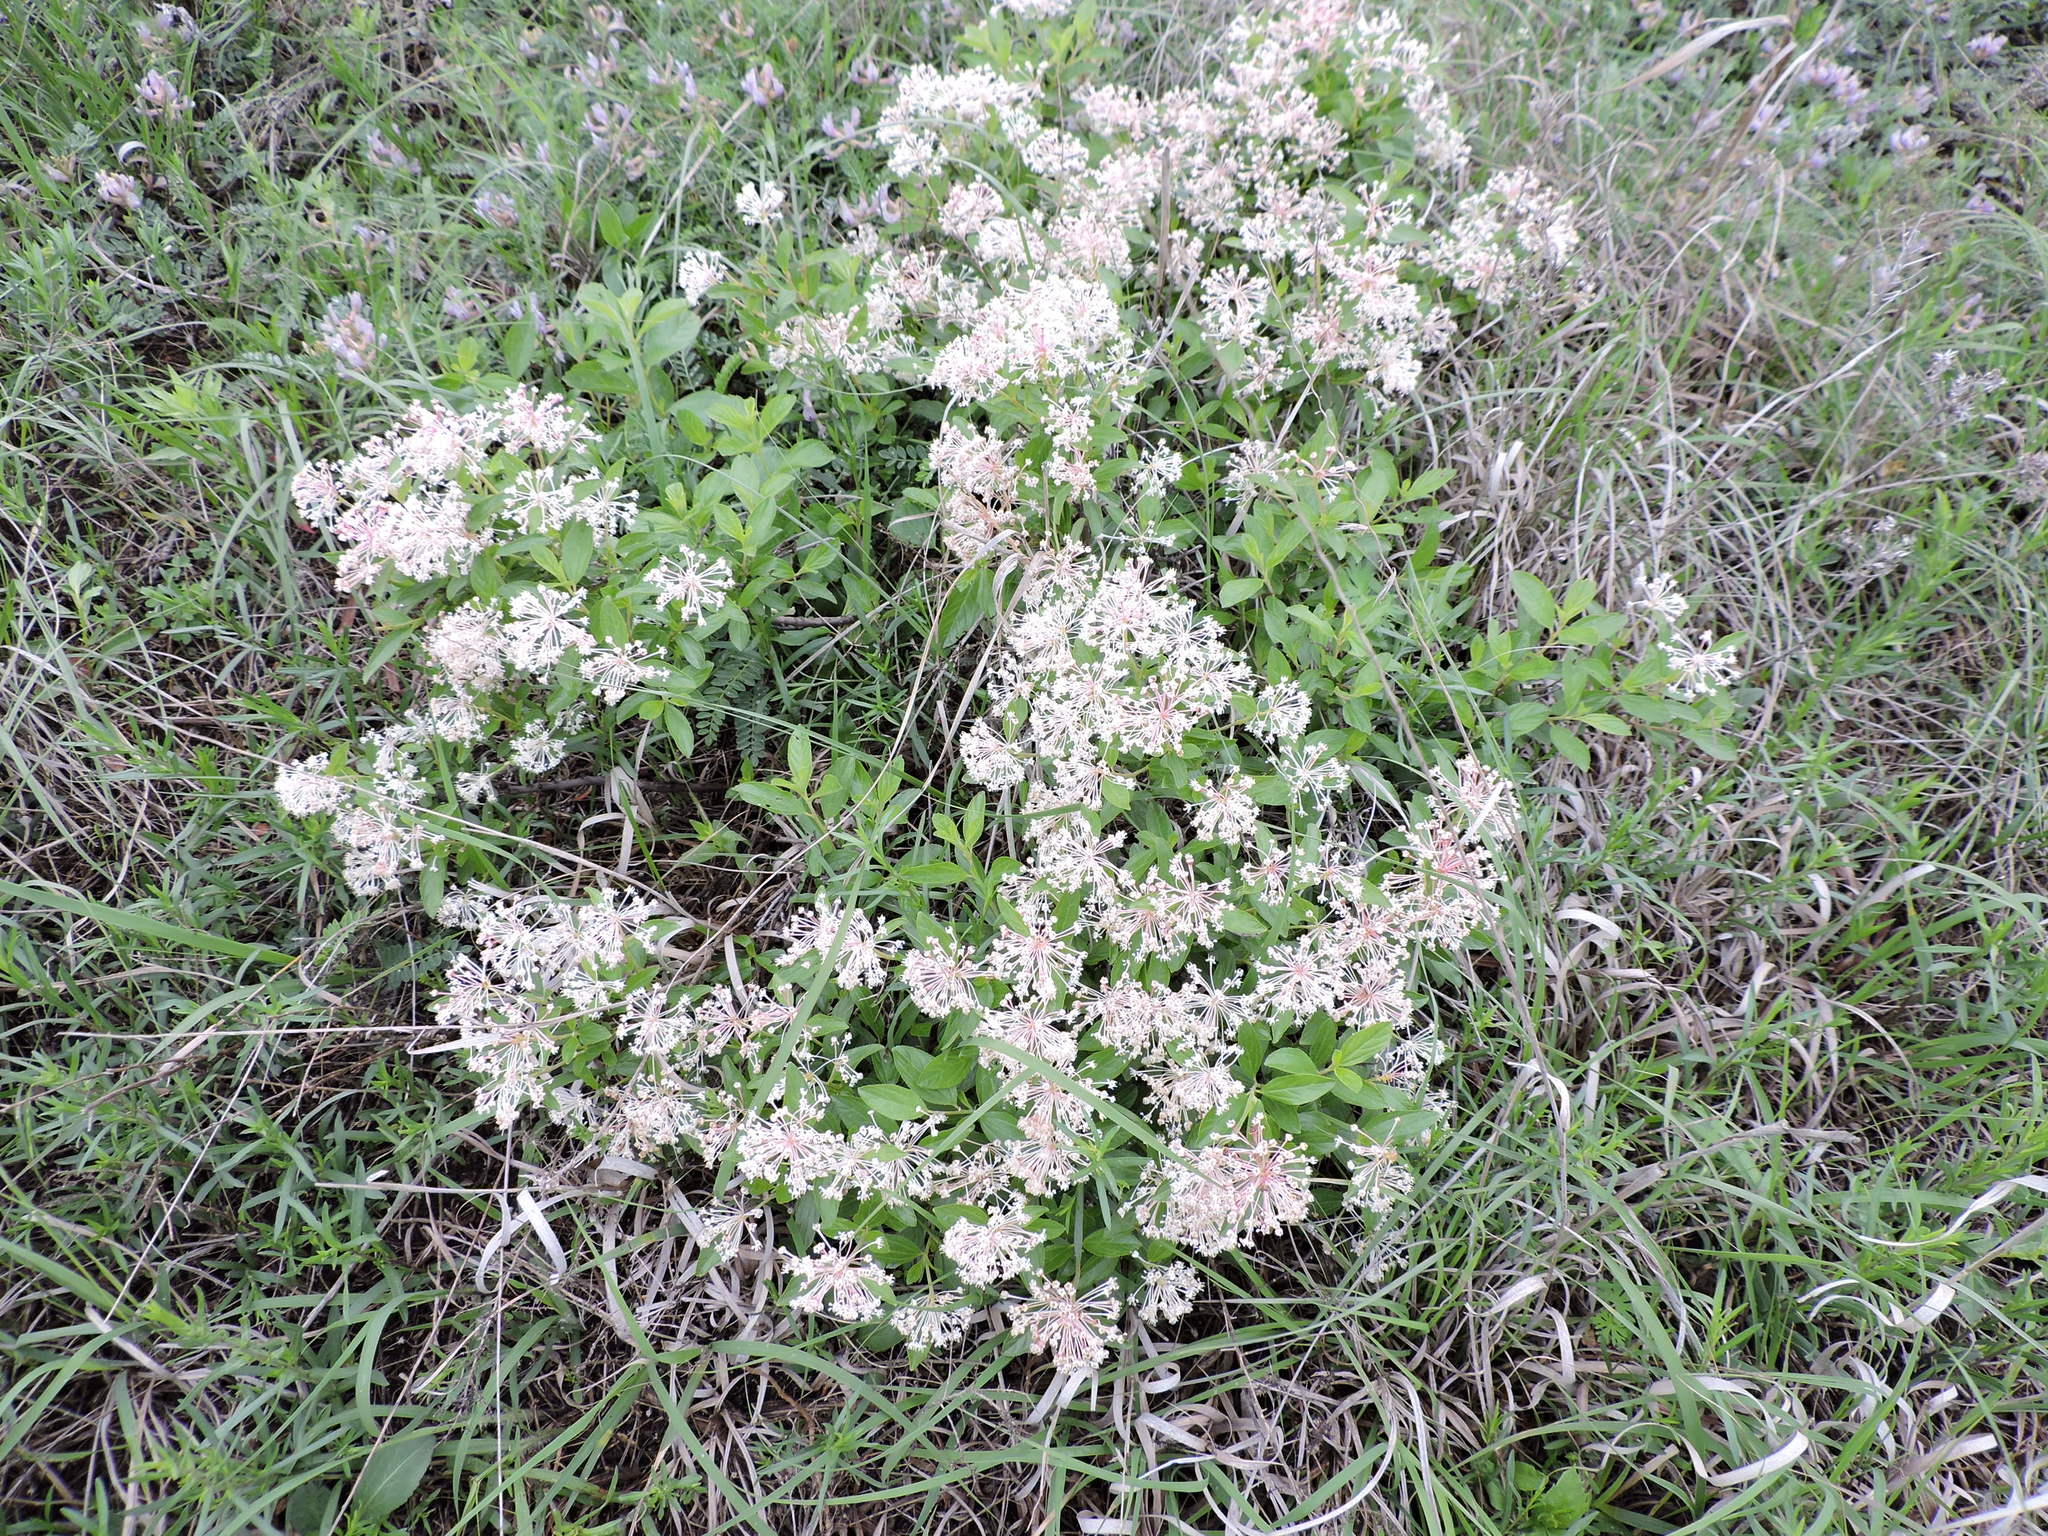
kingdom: Plantae
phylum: Tracheophyta
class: Magnoliopsida
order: Rosales
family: Rhamnaceae
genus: Ceanothus
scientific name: Ceanothus herbaceus
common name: Inland ceanothus
